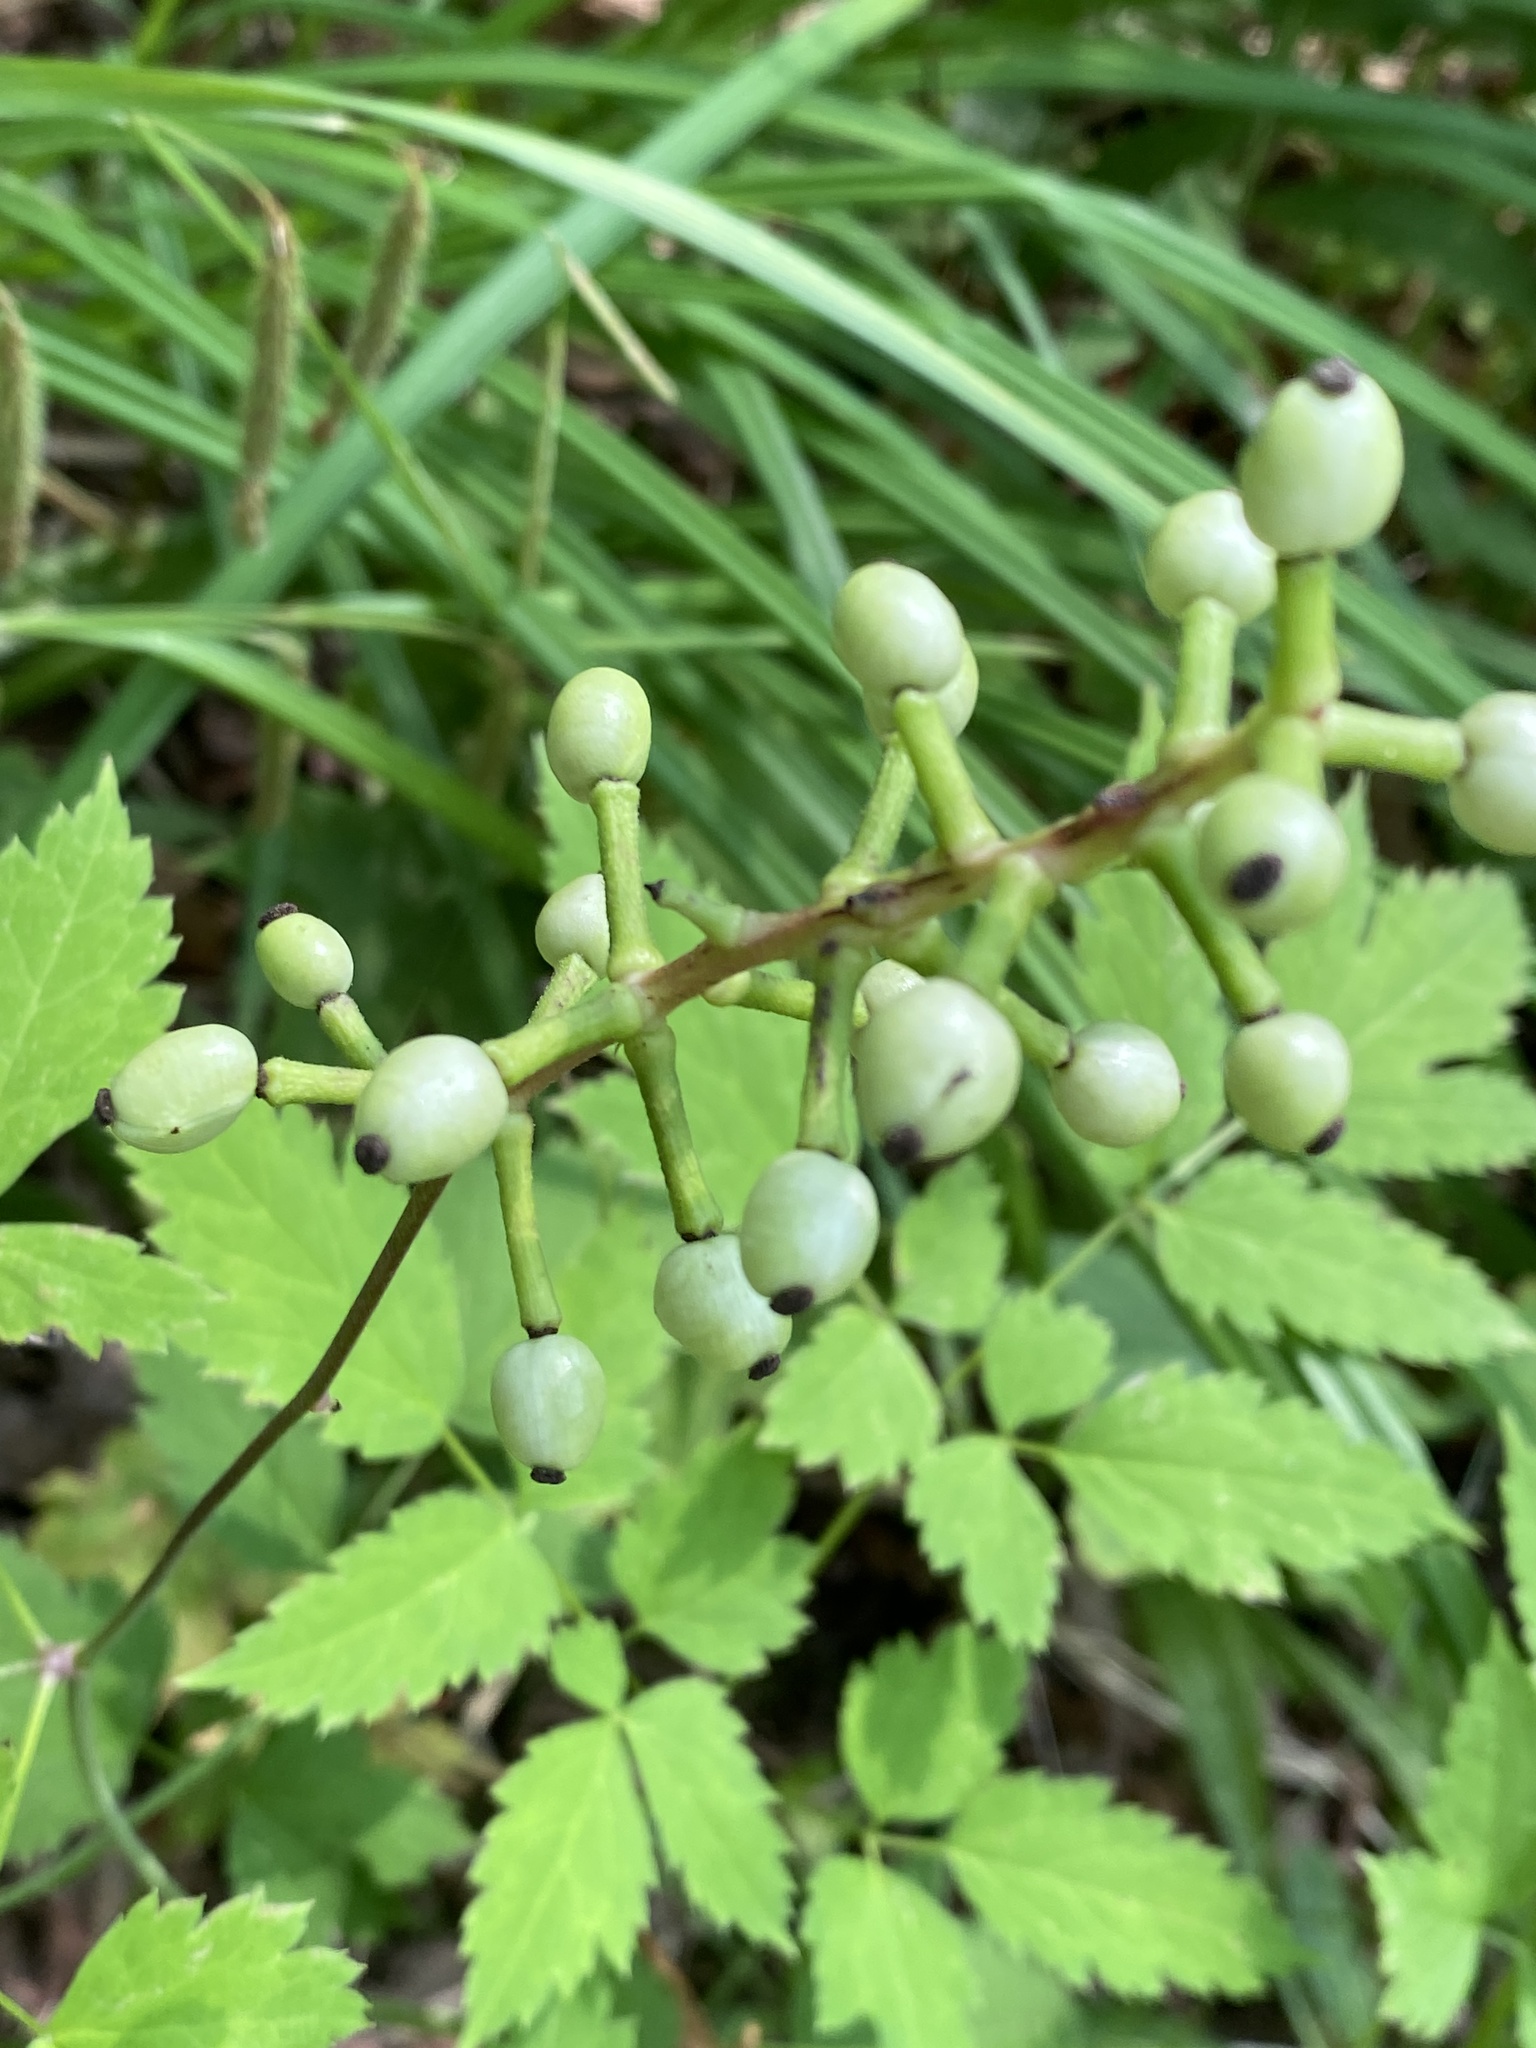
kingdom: Plantae
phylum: Tracheophyta
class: Magnoliopsida
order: Ranunculales
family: Ranunculaceae
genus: Actaea
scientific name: Actaea pachypoda
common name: Doll's-eyes
